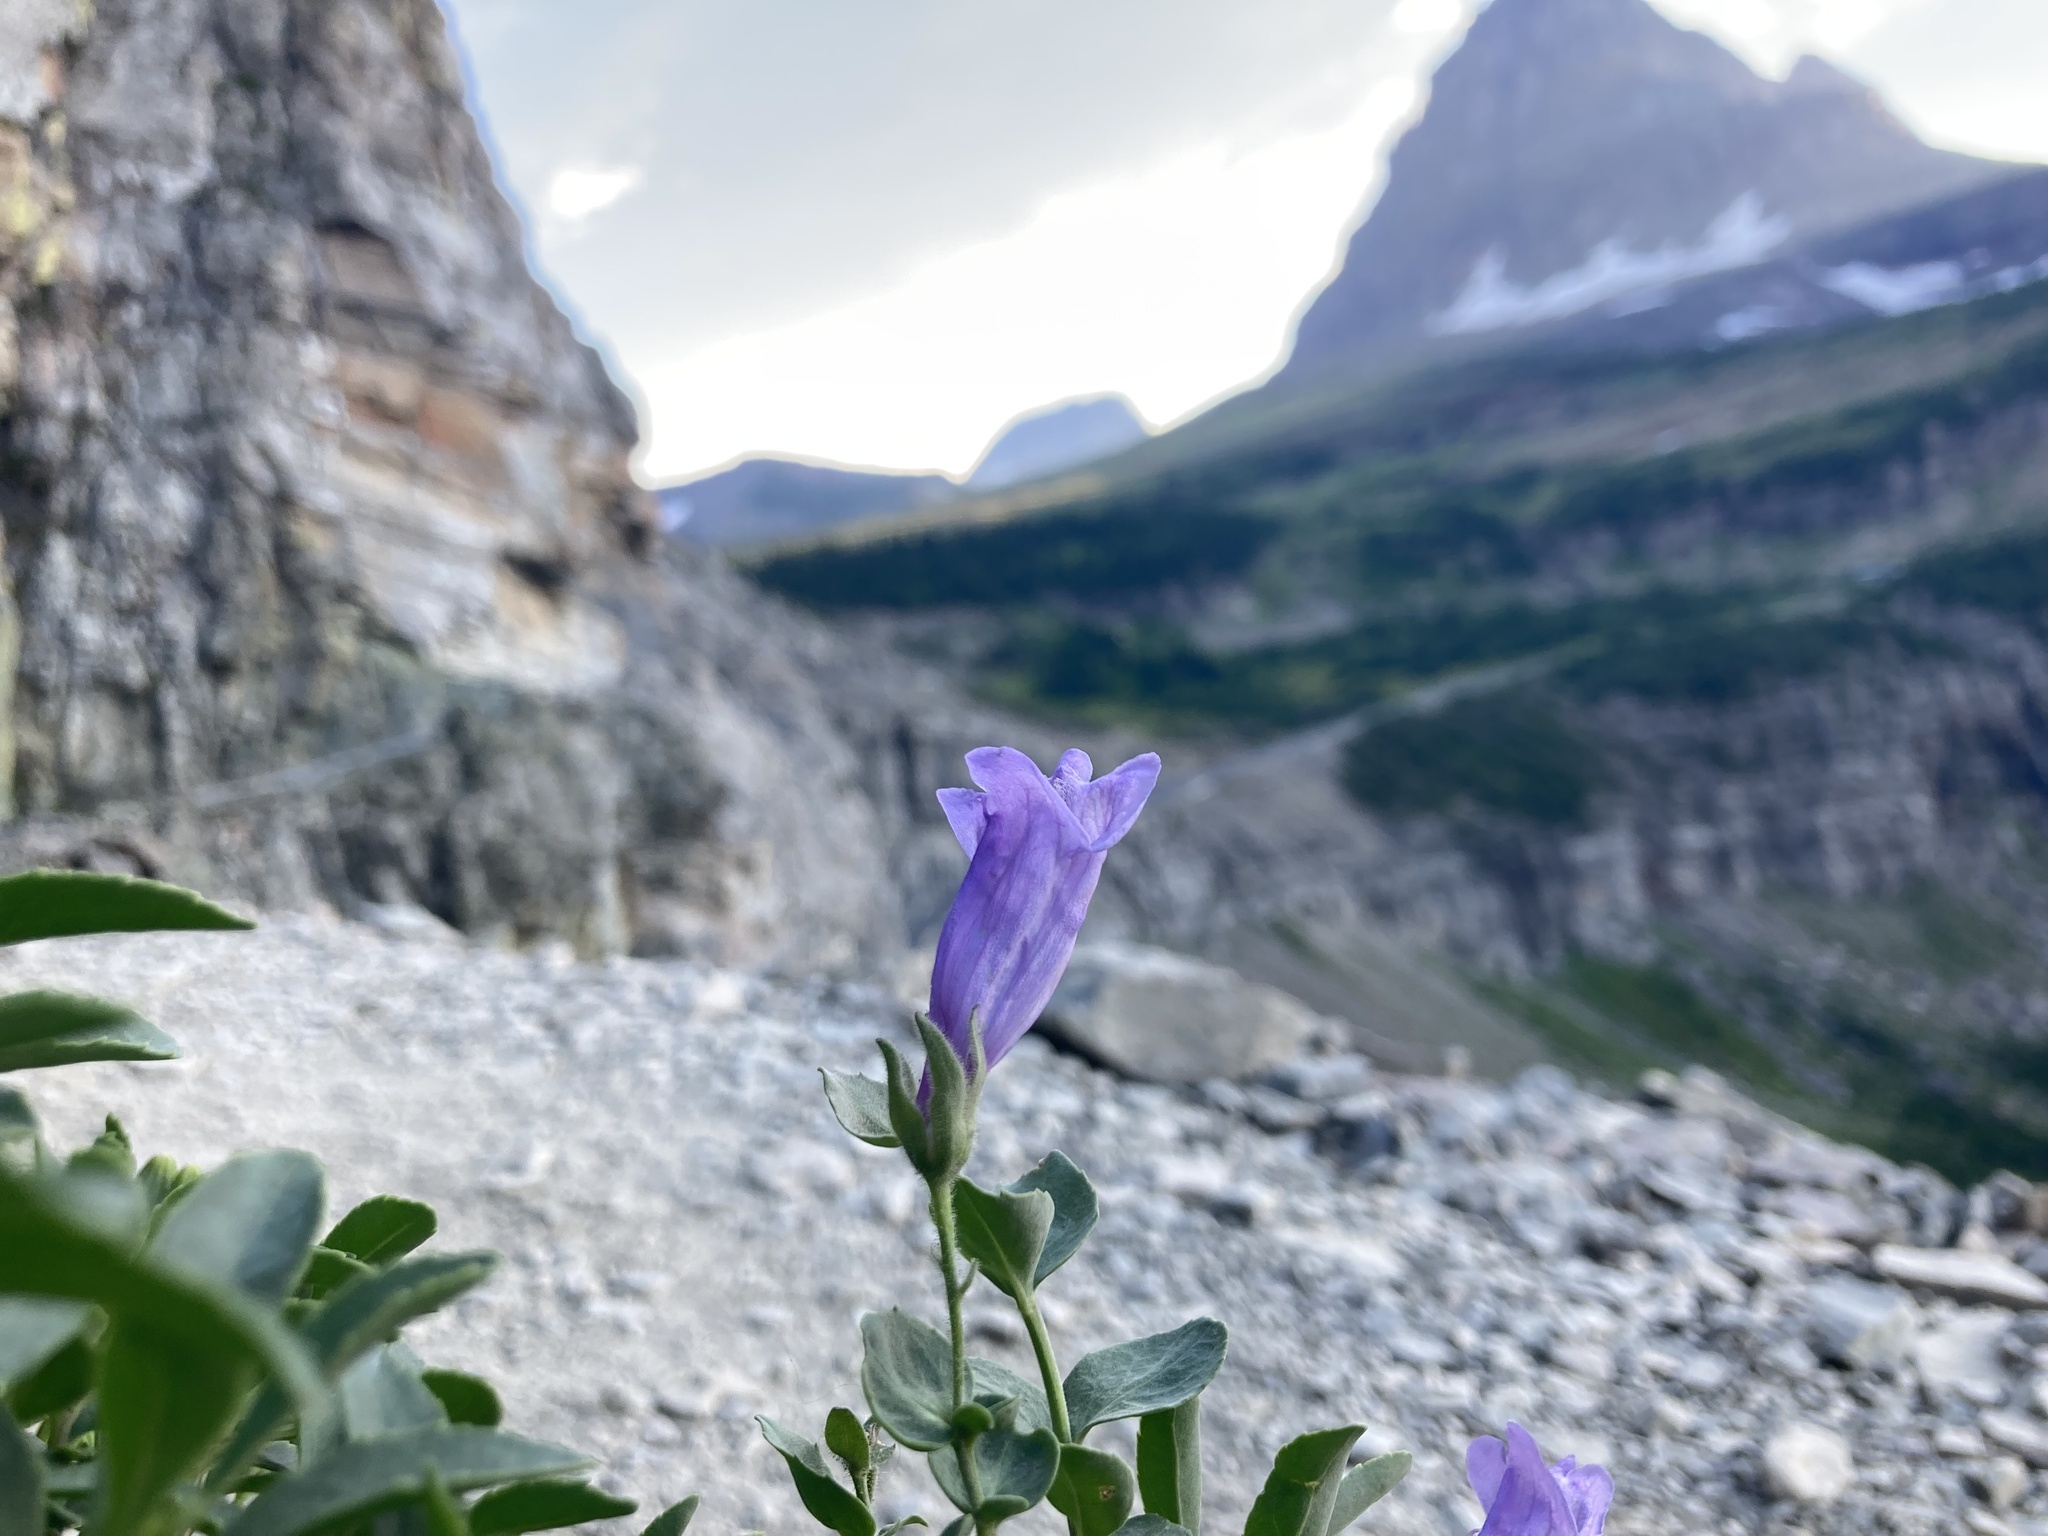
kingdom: Plantae
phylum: Tracheophyta
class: Magnoliopsida
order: Lamiales
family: Plantaginaceae
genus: Penstemon
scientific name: Penstemon ellipticus
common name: Alpine beardtongue
